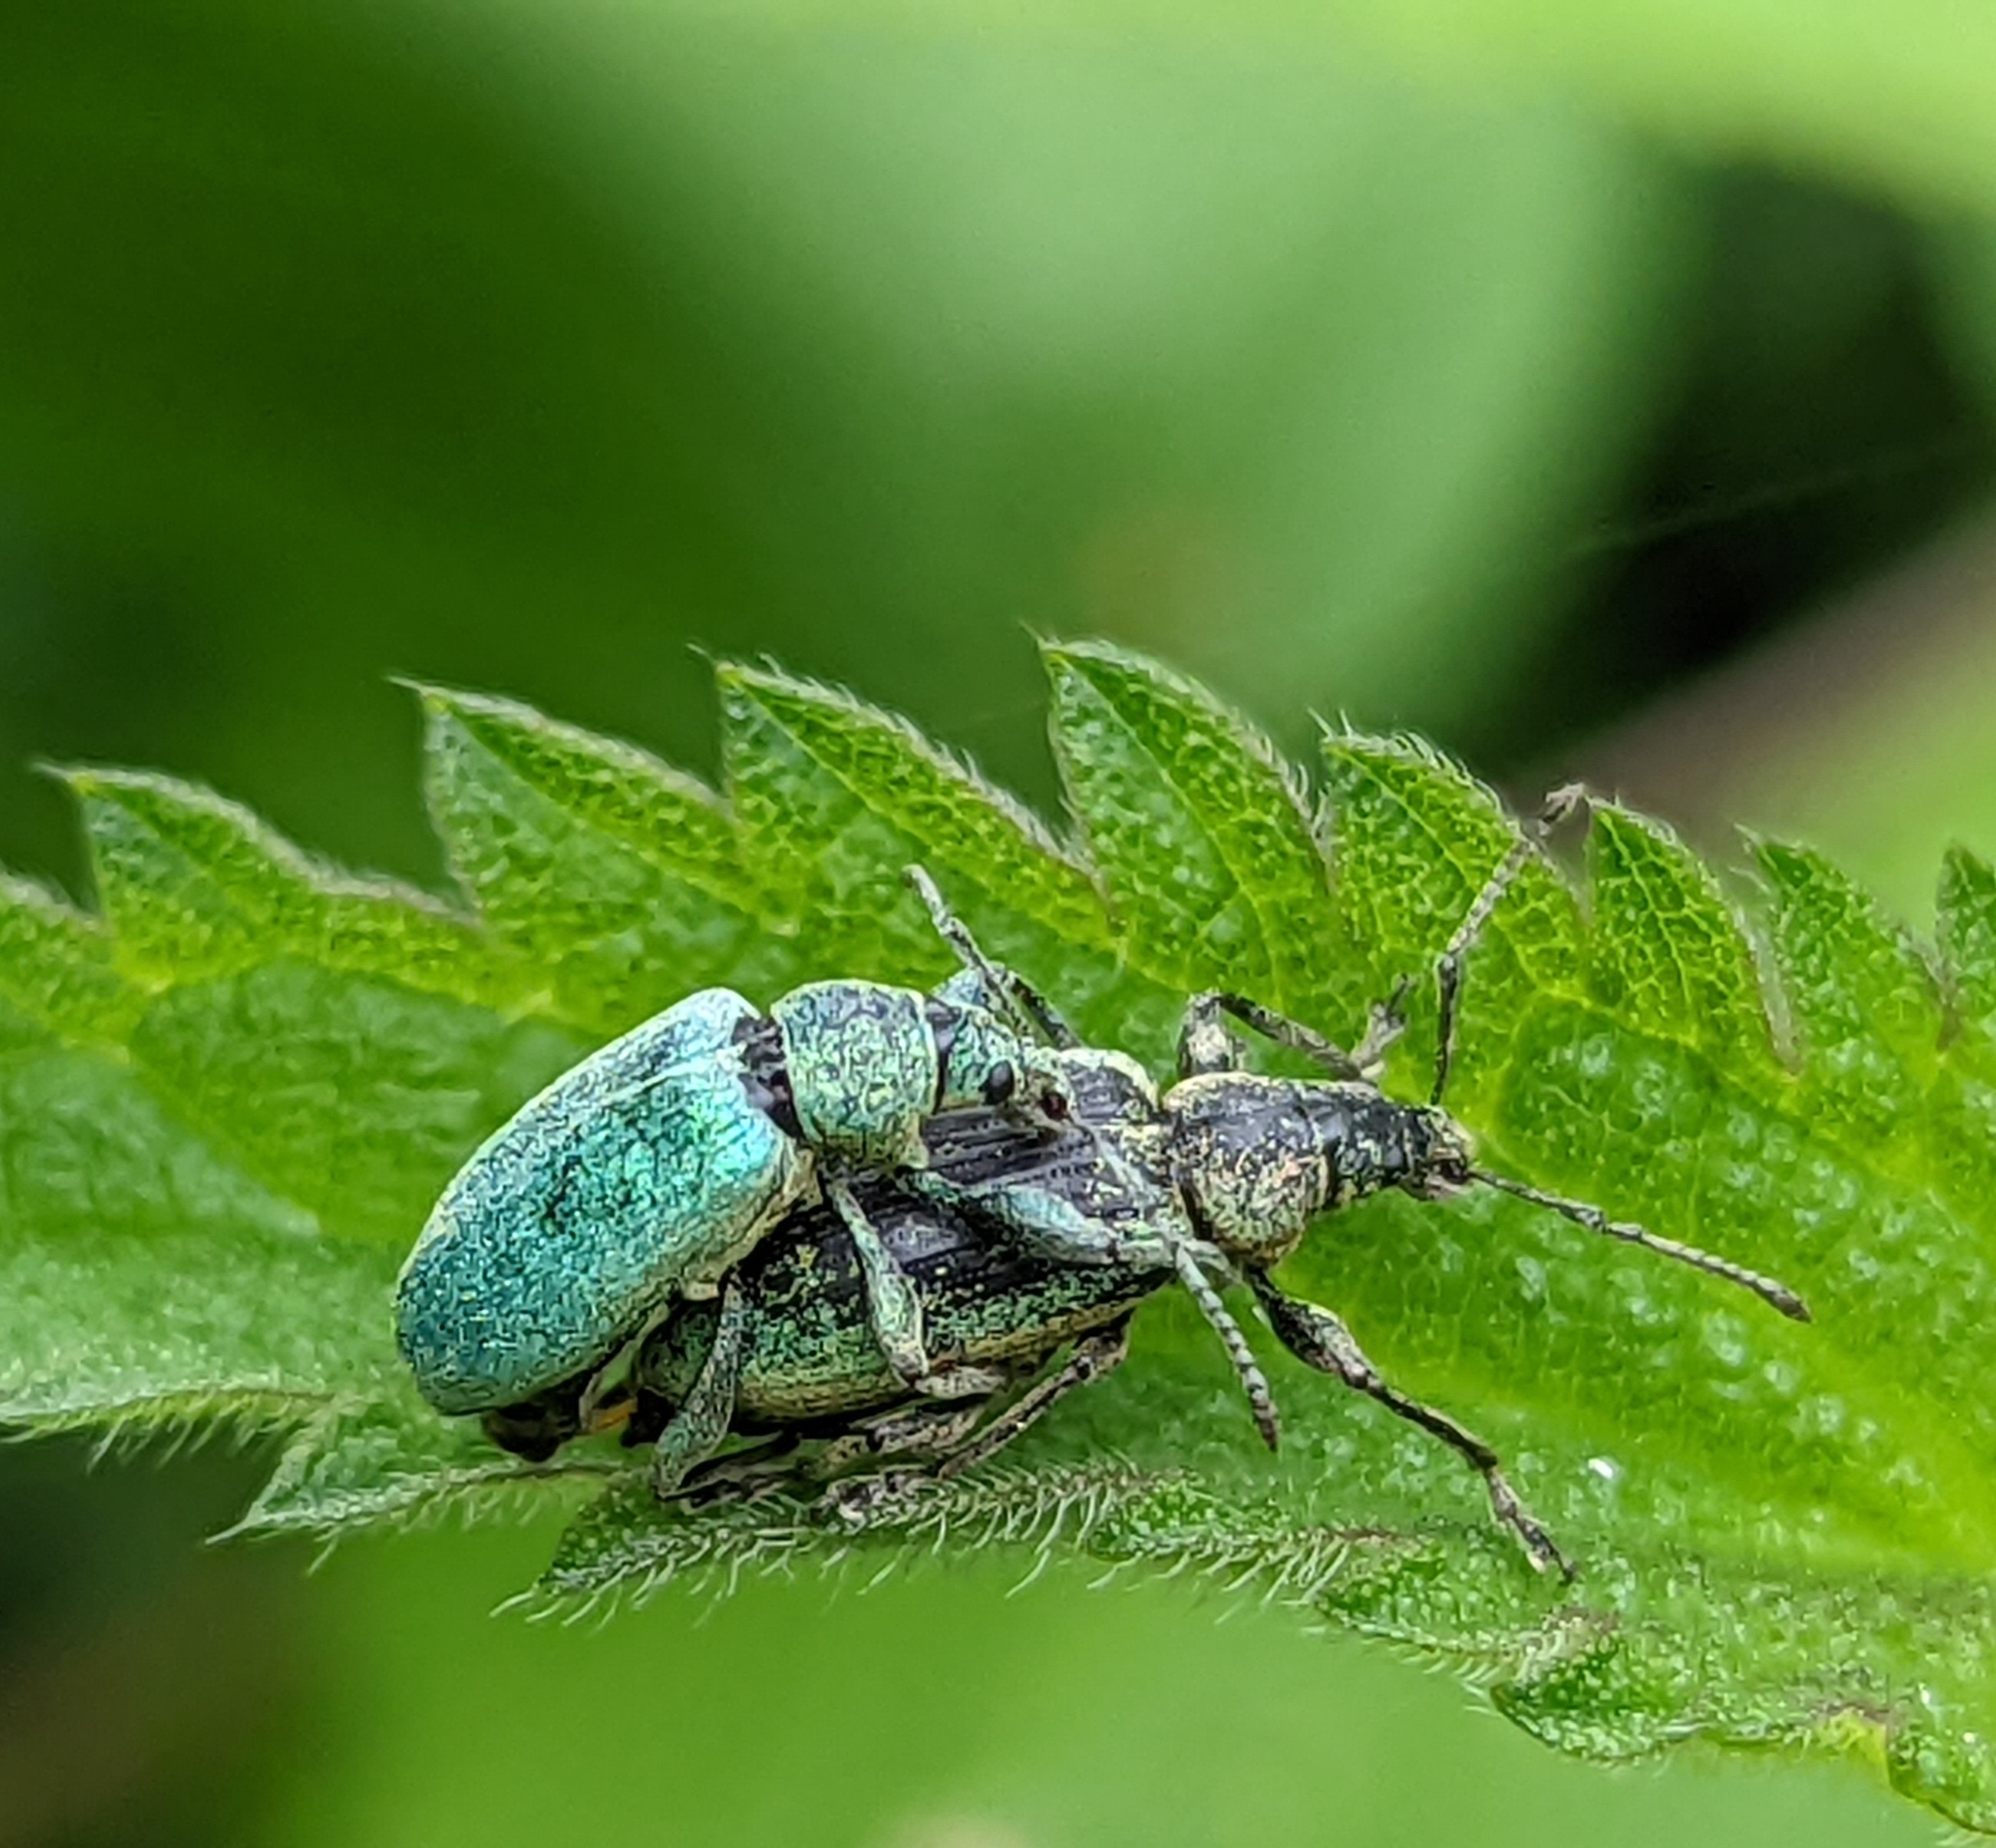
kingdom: Animalia
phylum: Arthropoda
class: Insecta
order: Coleoptera
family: Curculionidae
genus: Phyllobius
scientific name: Phyllobius pomaceus
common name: Green nettle weevil
